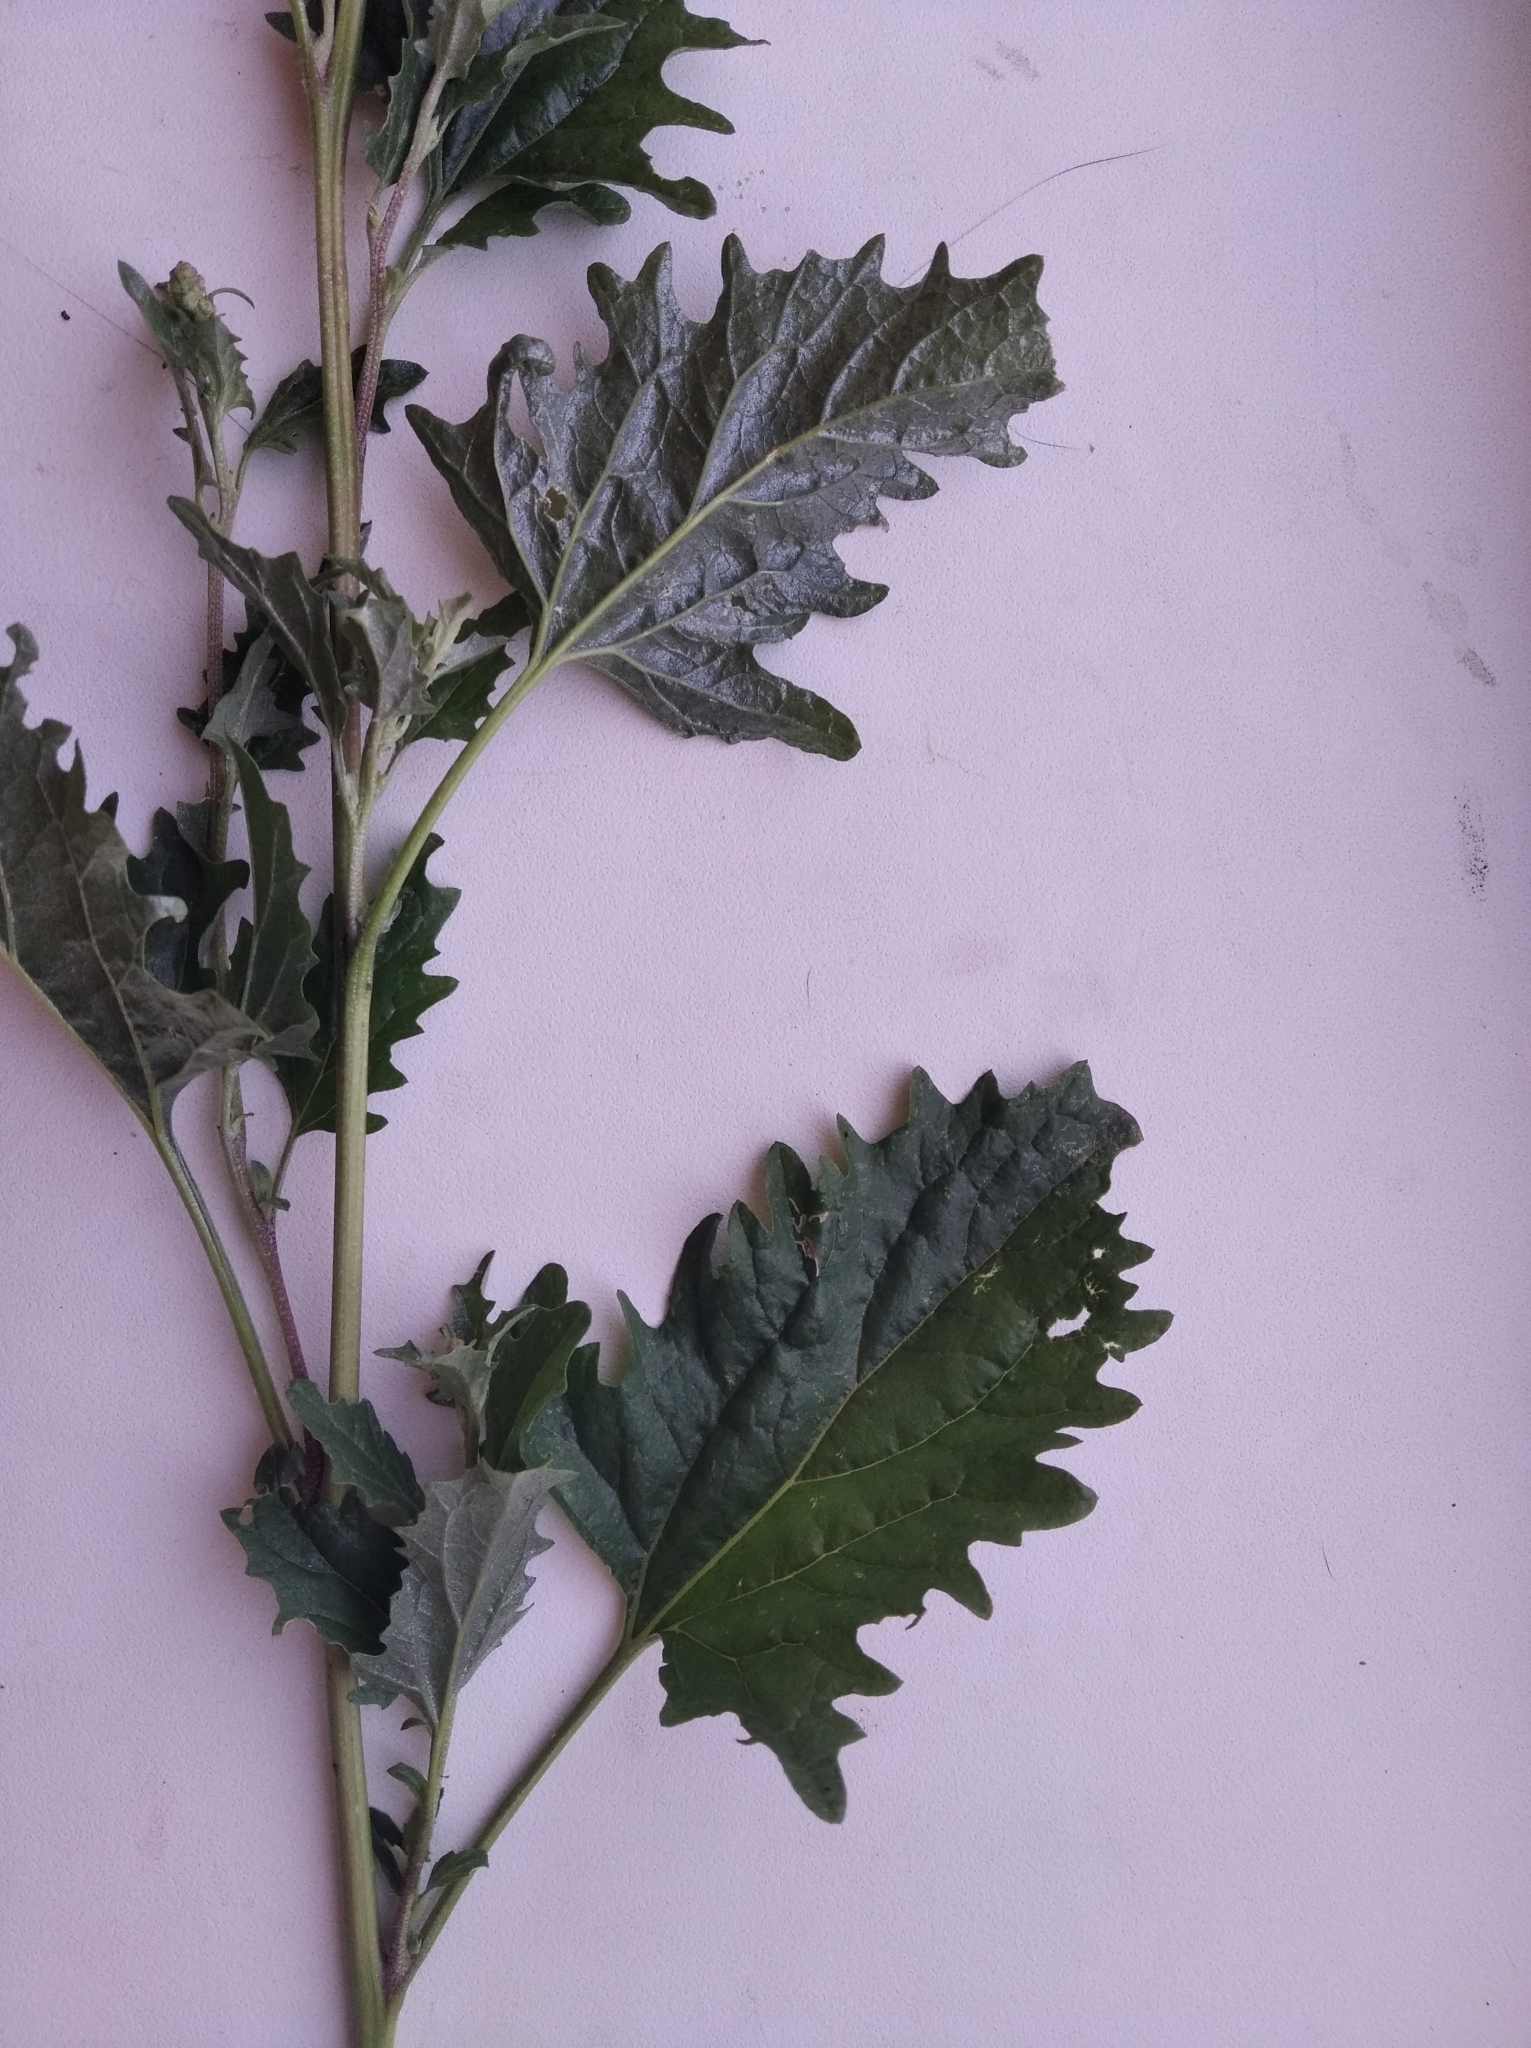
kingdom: Plantae
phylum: Tracheophyta
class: Magnoliopsida
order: Caryophyllales
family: Amaranthaceae
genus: Atriplex
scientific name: Atriplex tatarica
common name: Tatarian orache
